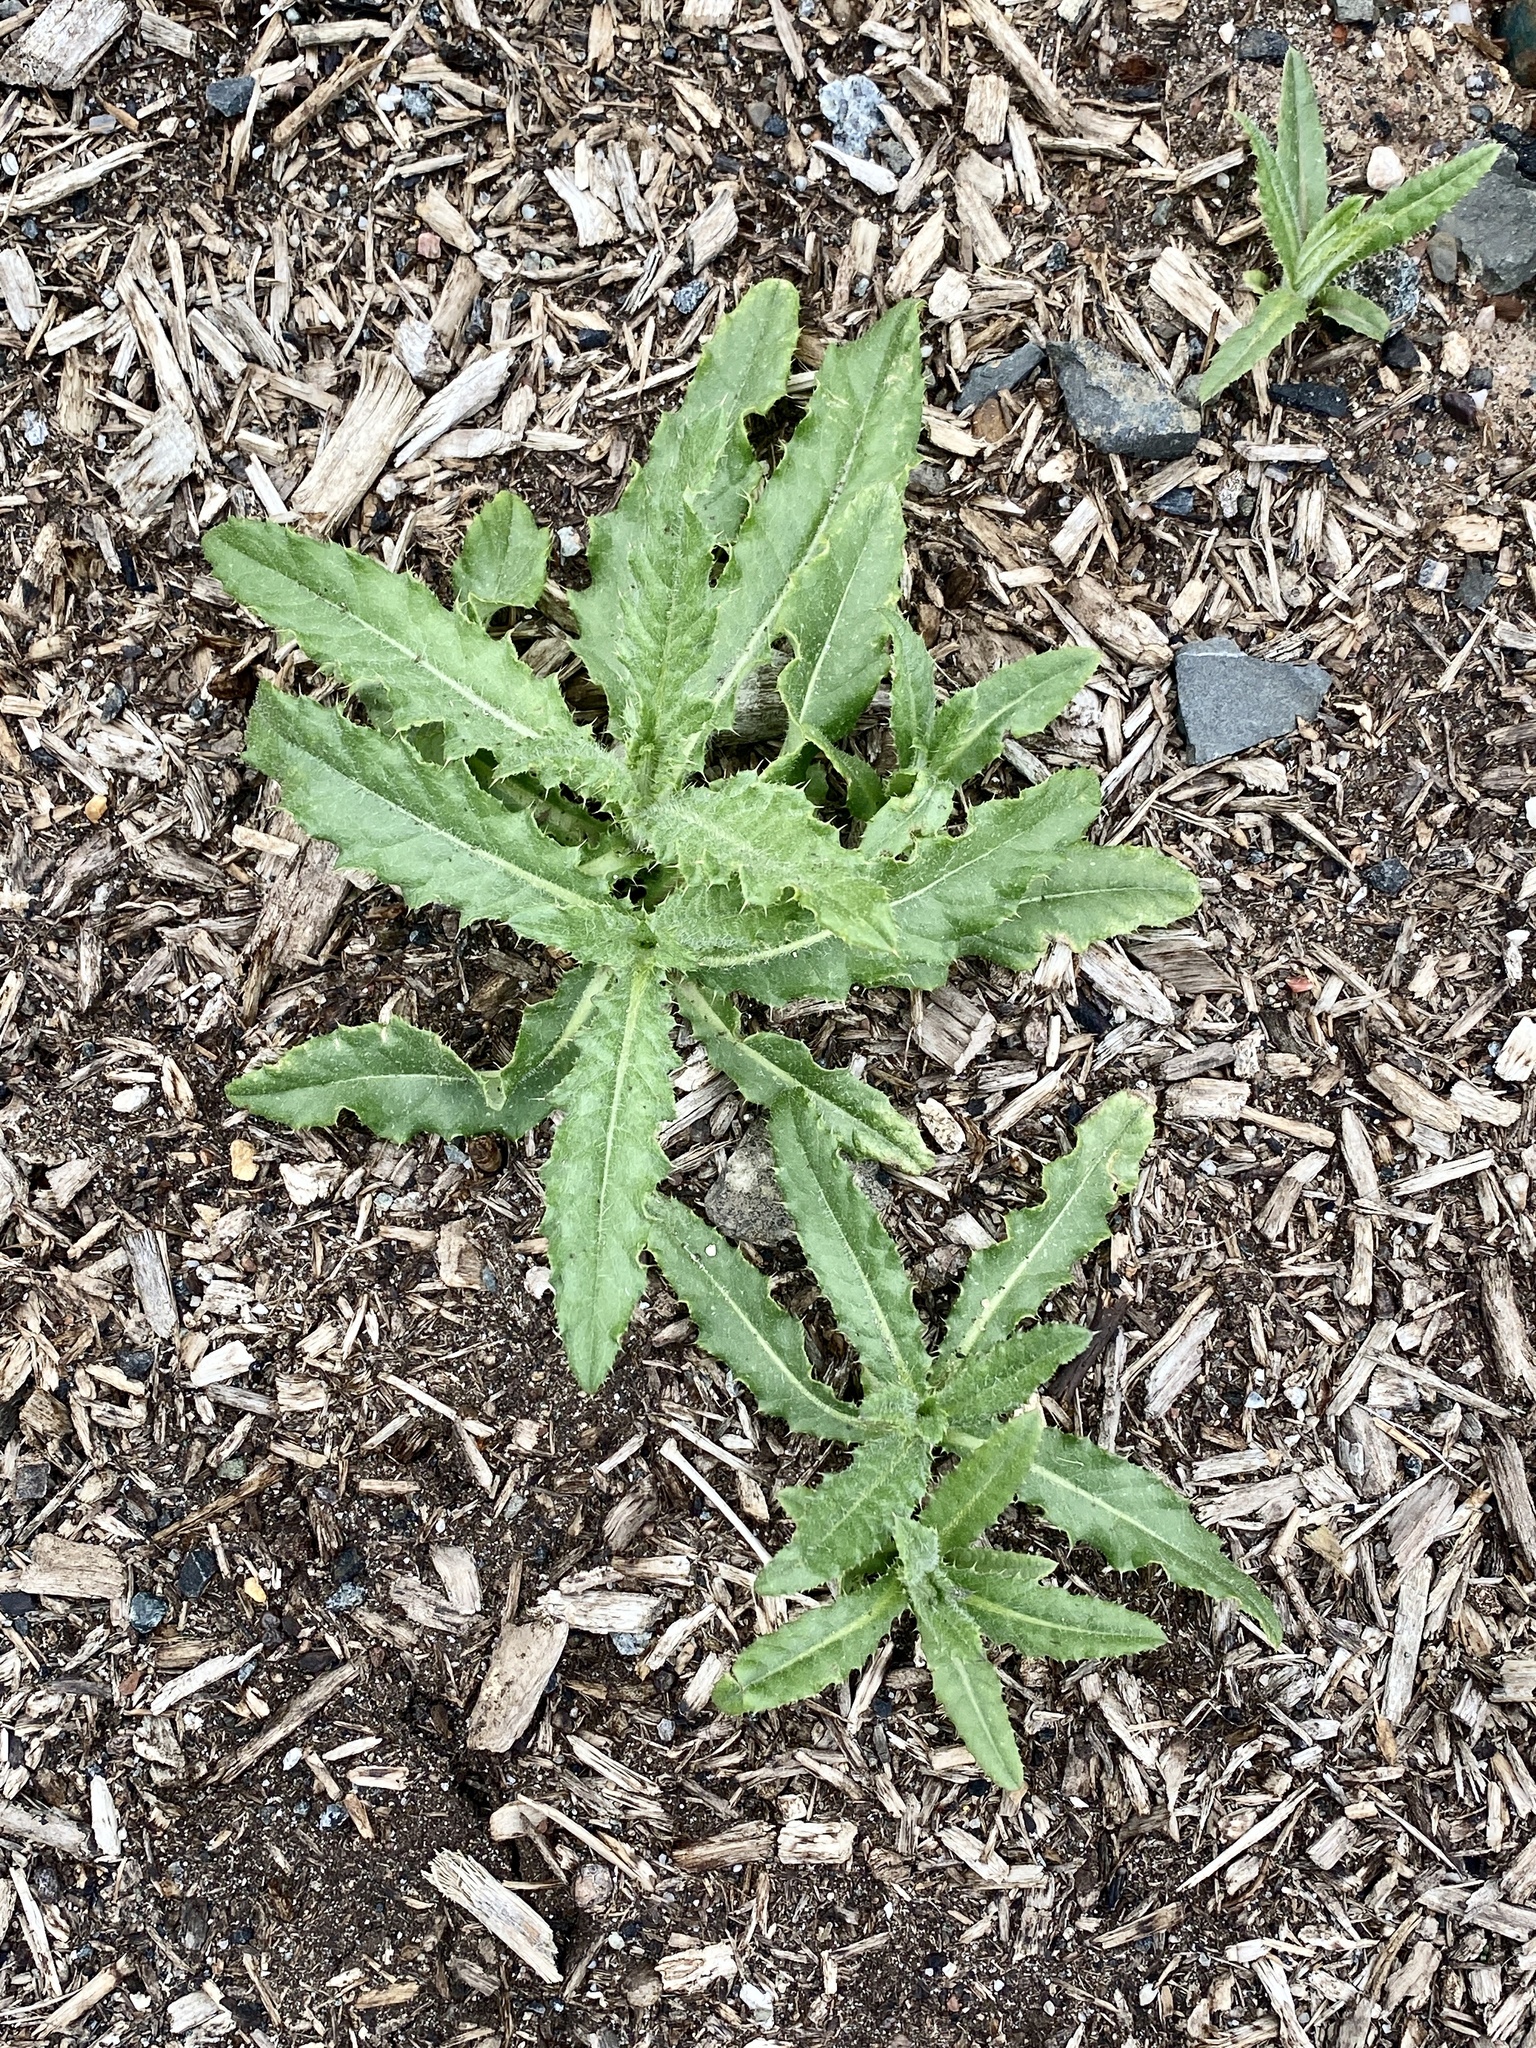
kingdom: Plantae
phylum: Tracheophyta
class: Magnoliopsida
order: Asterales
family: Asteraceae
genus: Cirsium
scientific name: Cirsium arvense
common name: Creeping thistle
